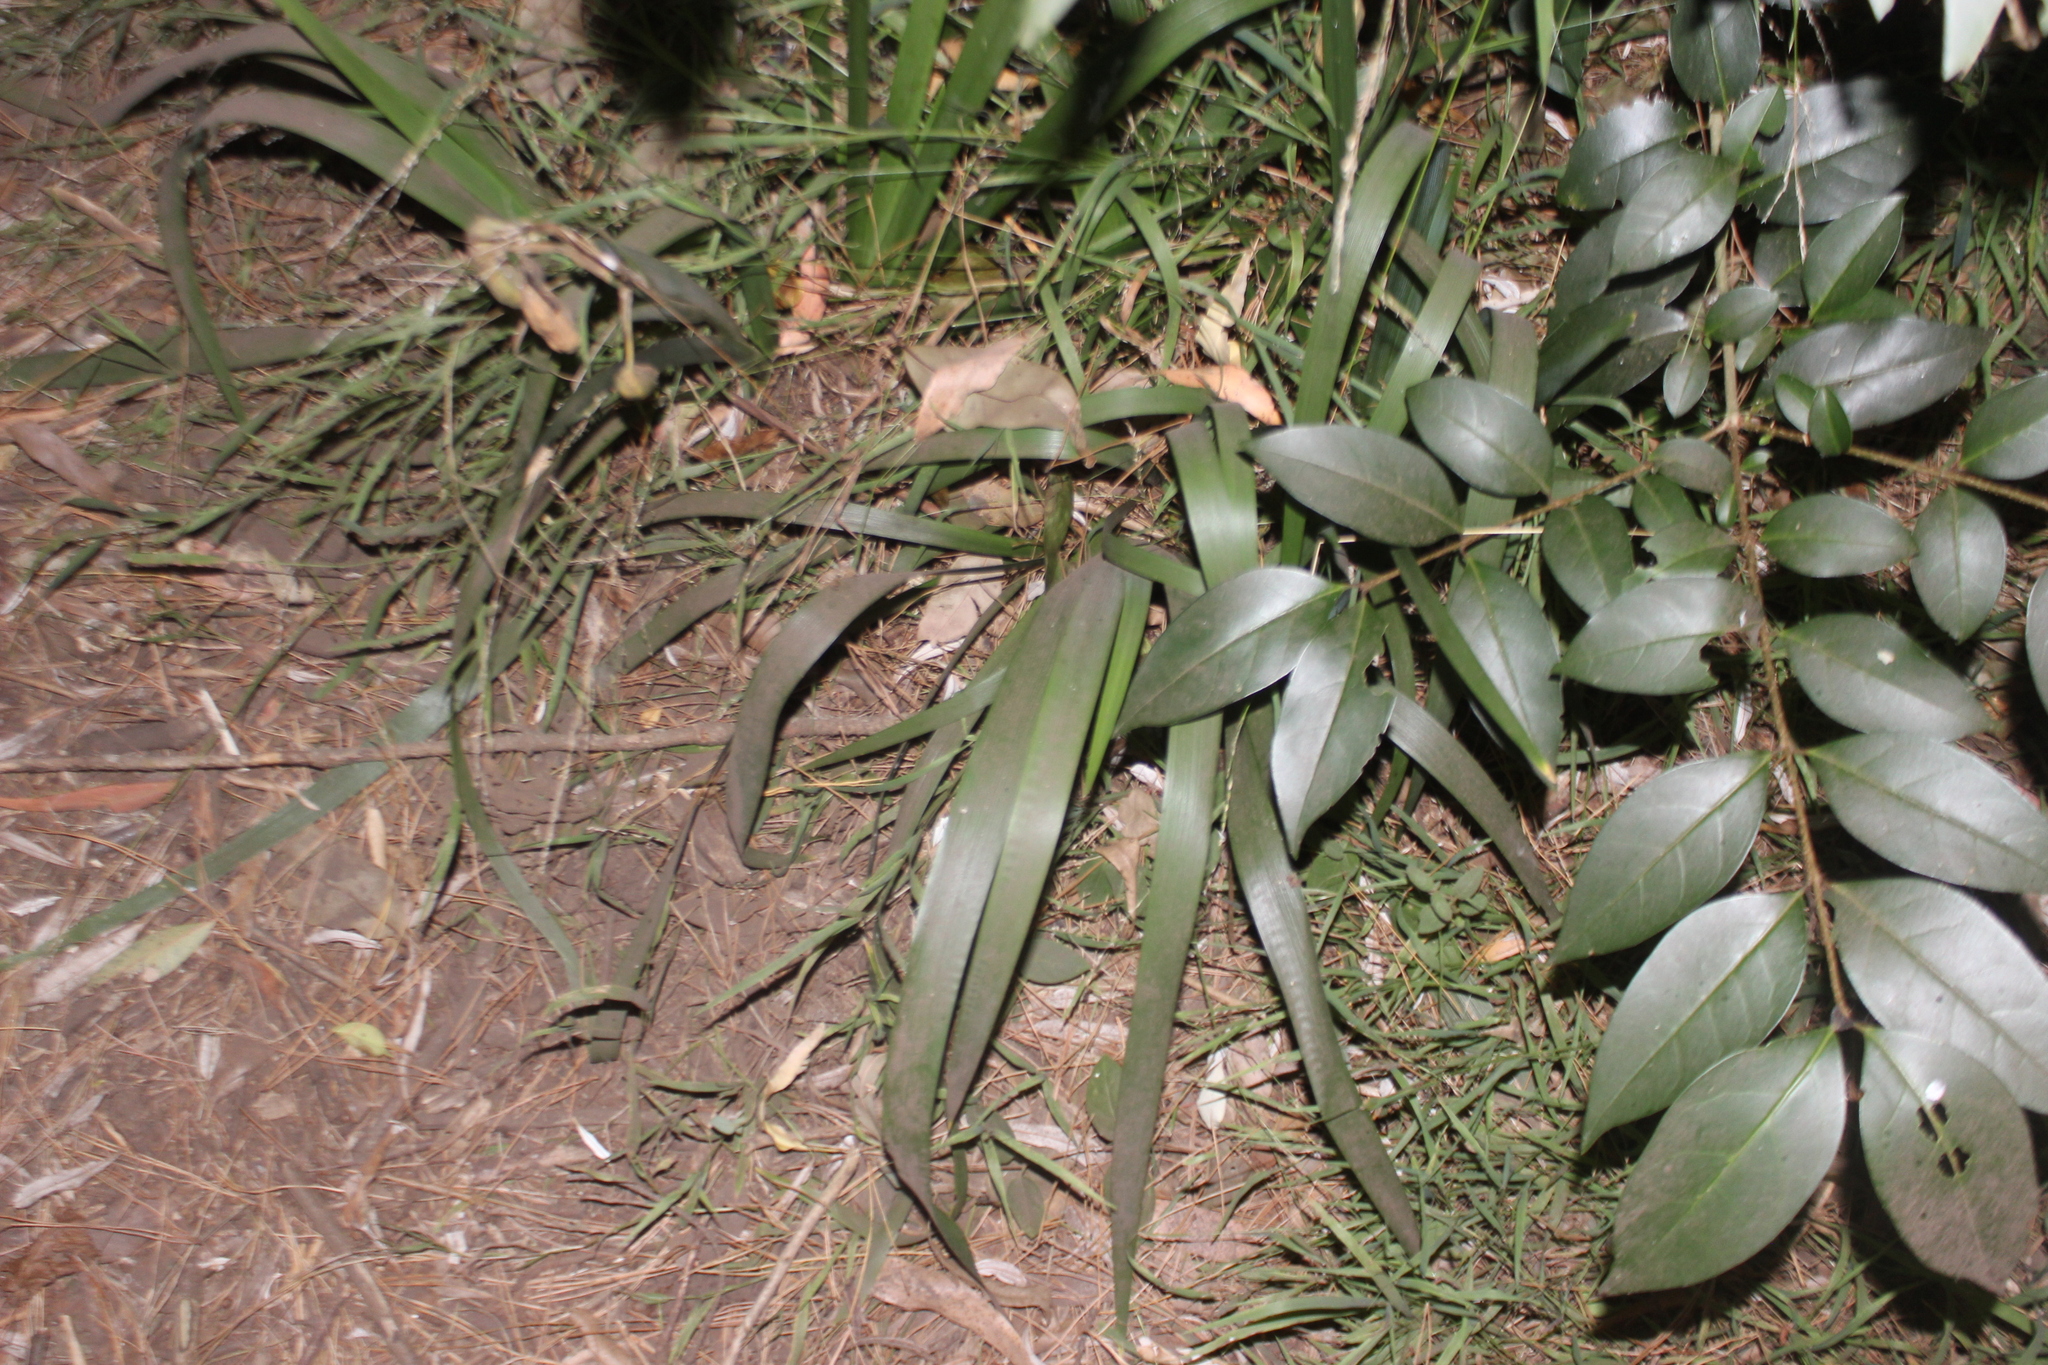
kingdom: Plantae
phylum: Tracheophyta
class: Liliopsida
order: Asparagales
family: Iridaceae
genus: Iris
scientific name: Iris foetidissima
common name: Stinking iris
